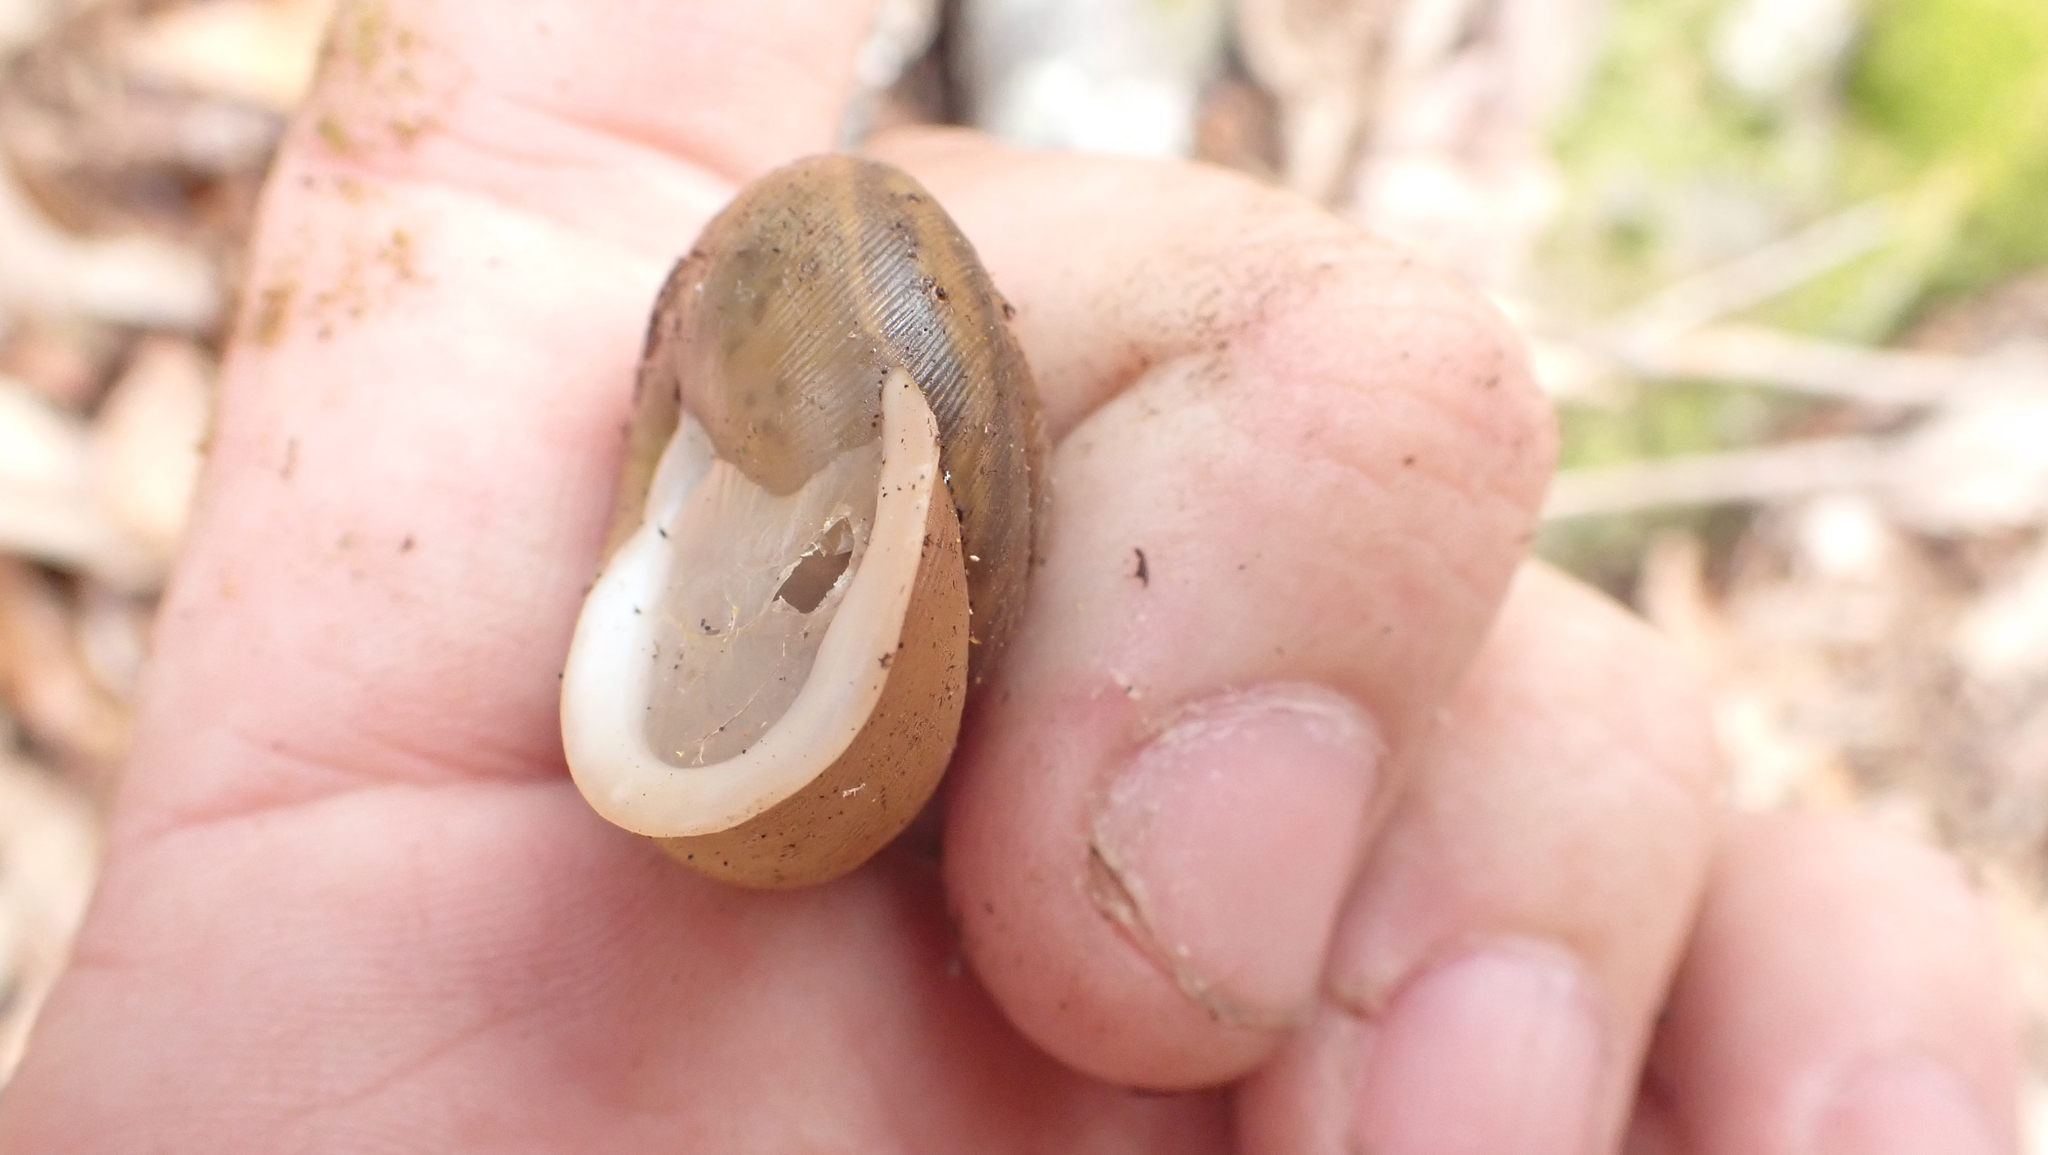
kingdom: Animalia
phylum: Mollusca
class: Gastropoda
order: Stylommatophora
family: Polygyridae
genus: Neohelix
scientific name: Neohelix albolabris
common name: Eastern whitelip
